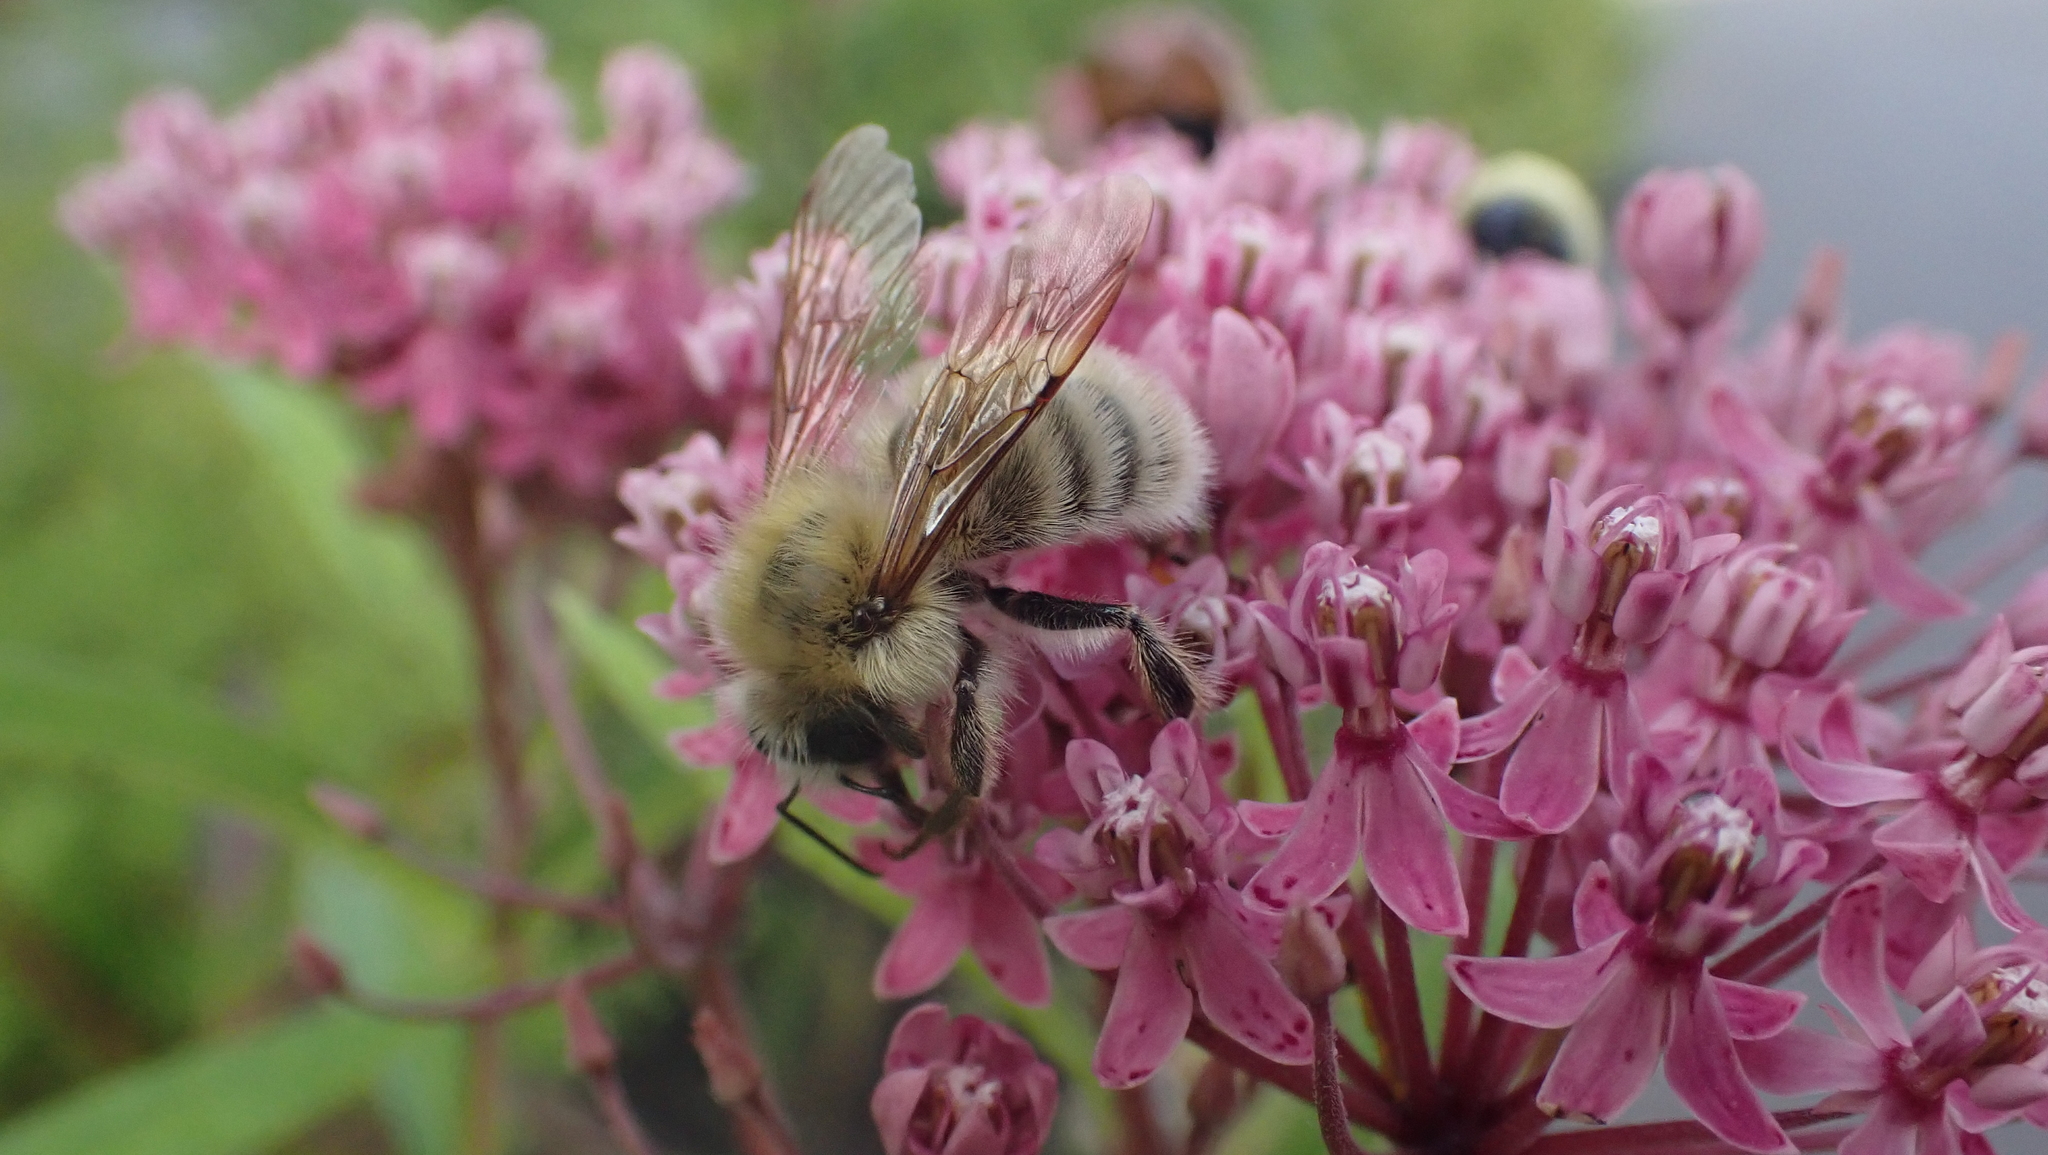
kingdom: Animalia
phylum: Arthropoda
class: Insecta
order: Hymenoptera
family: Apidae
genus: Bombus
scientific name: Bombus perplexus
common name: Confusing bumble bee
